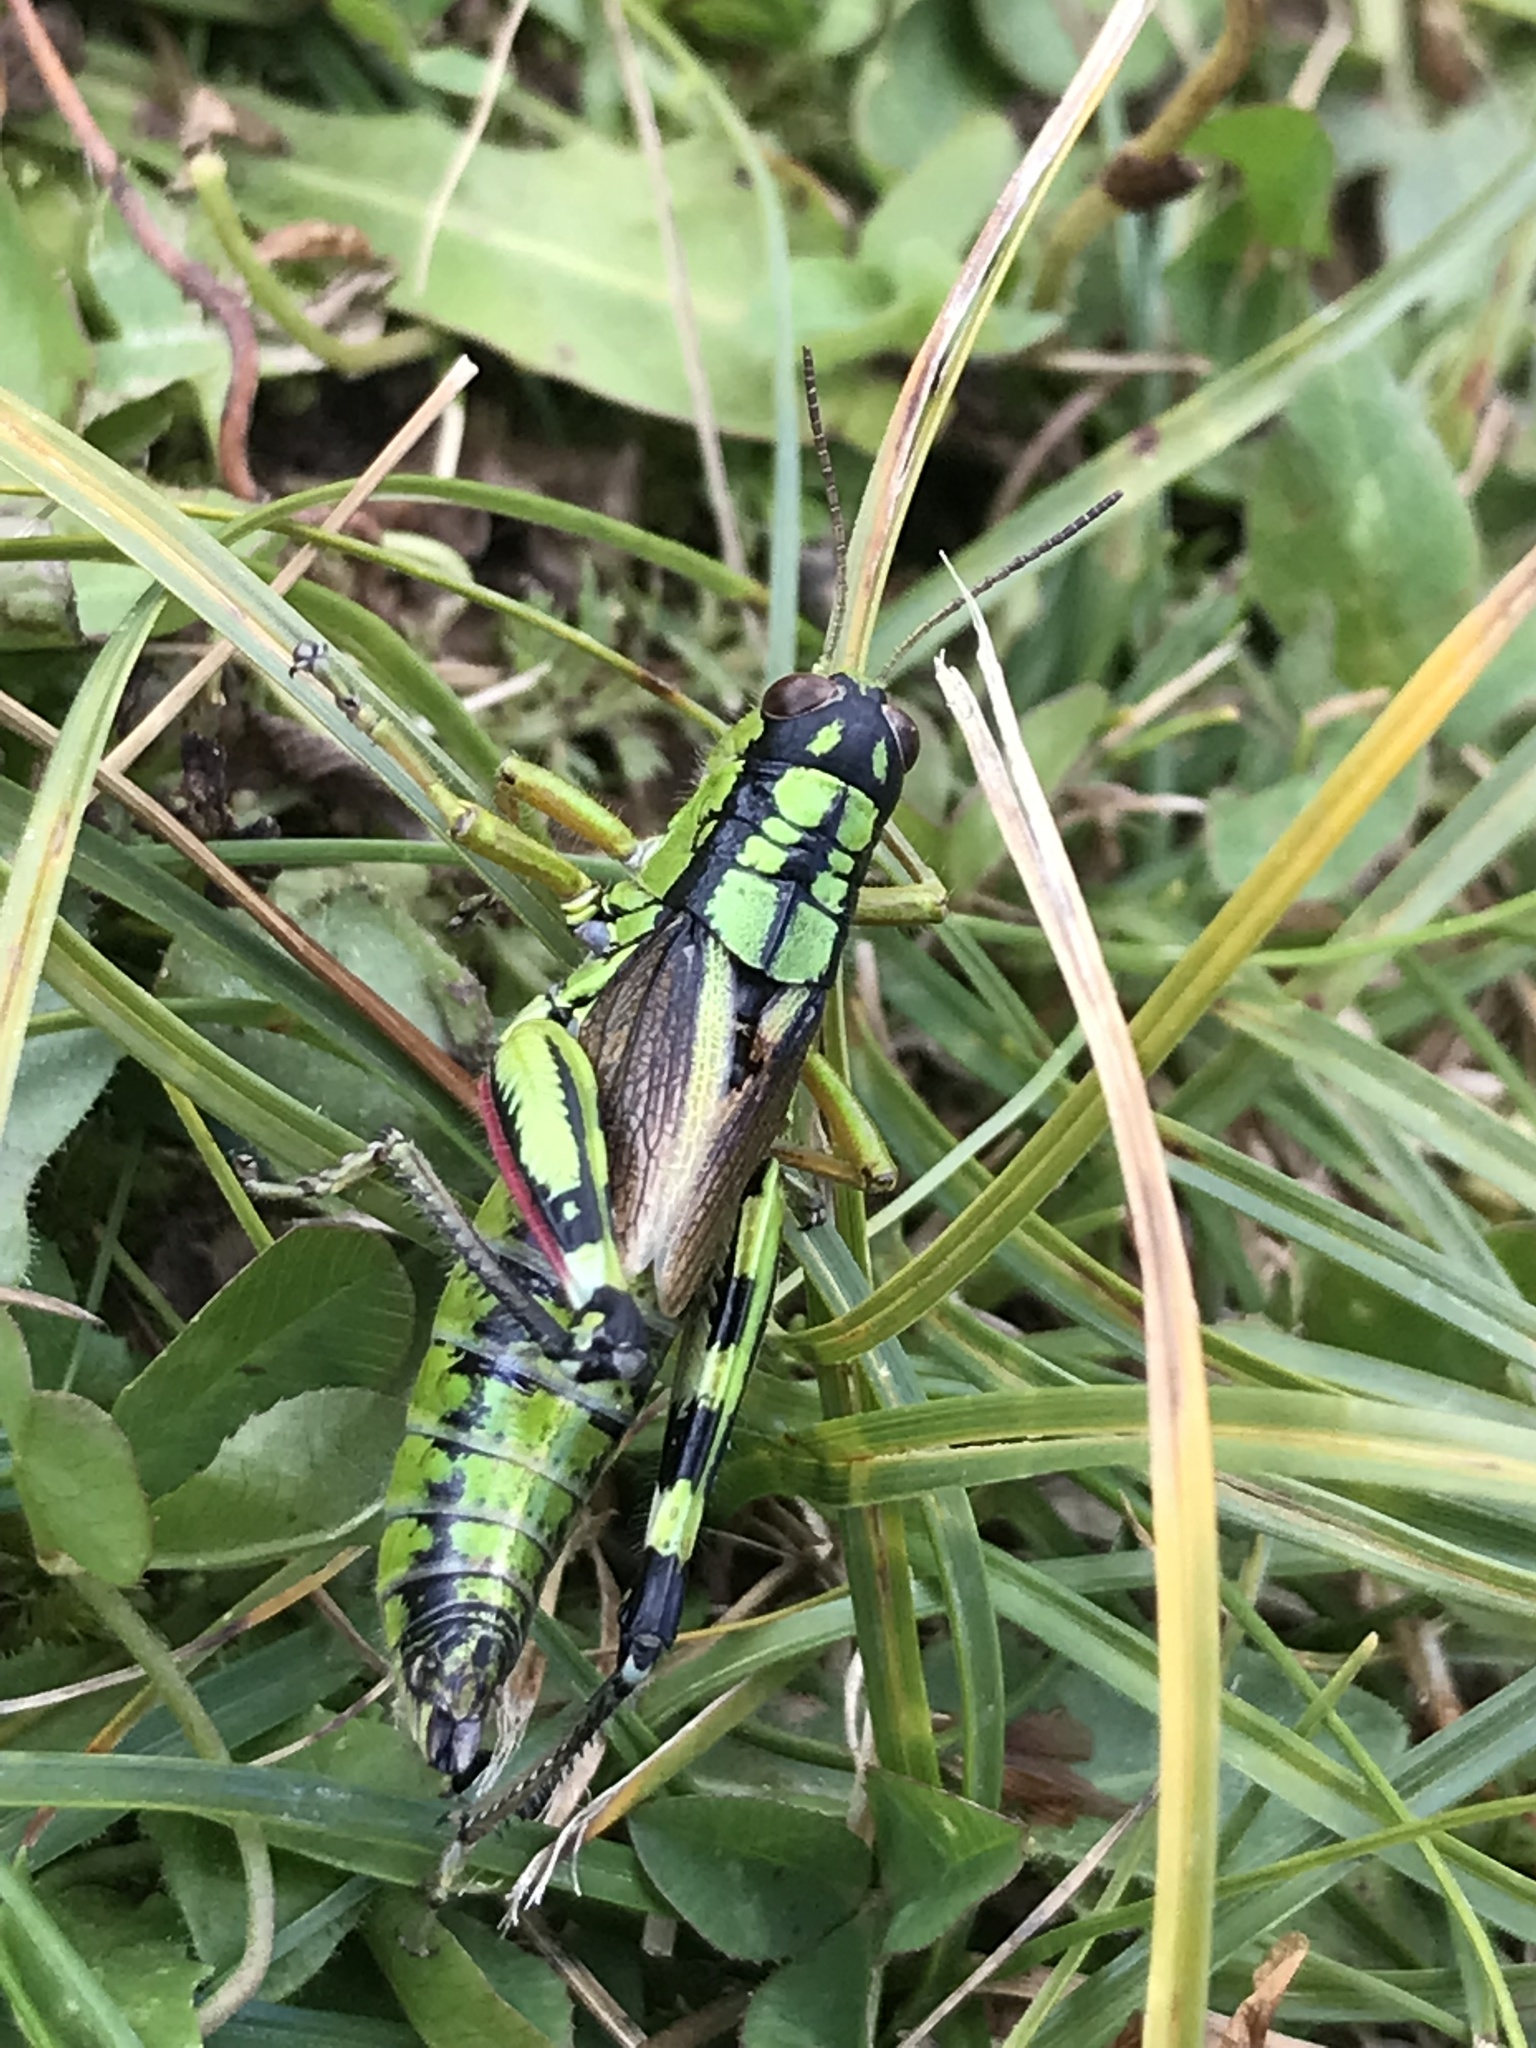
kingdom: Animalia
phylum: Arthropoda
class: Insecta
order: Orthoptera
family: Acrididae
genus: Miramella
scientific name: Miramella irena
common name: Long-winged mountain grasshopper
